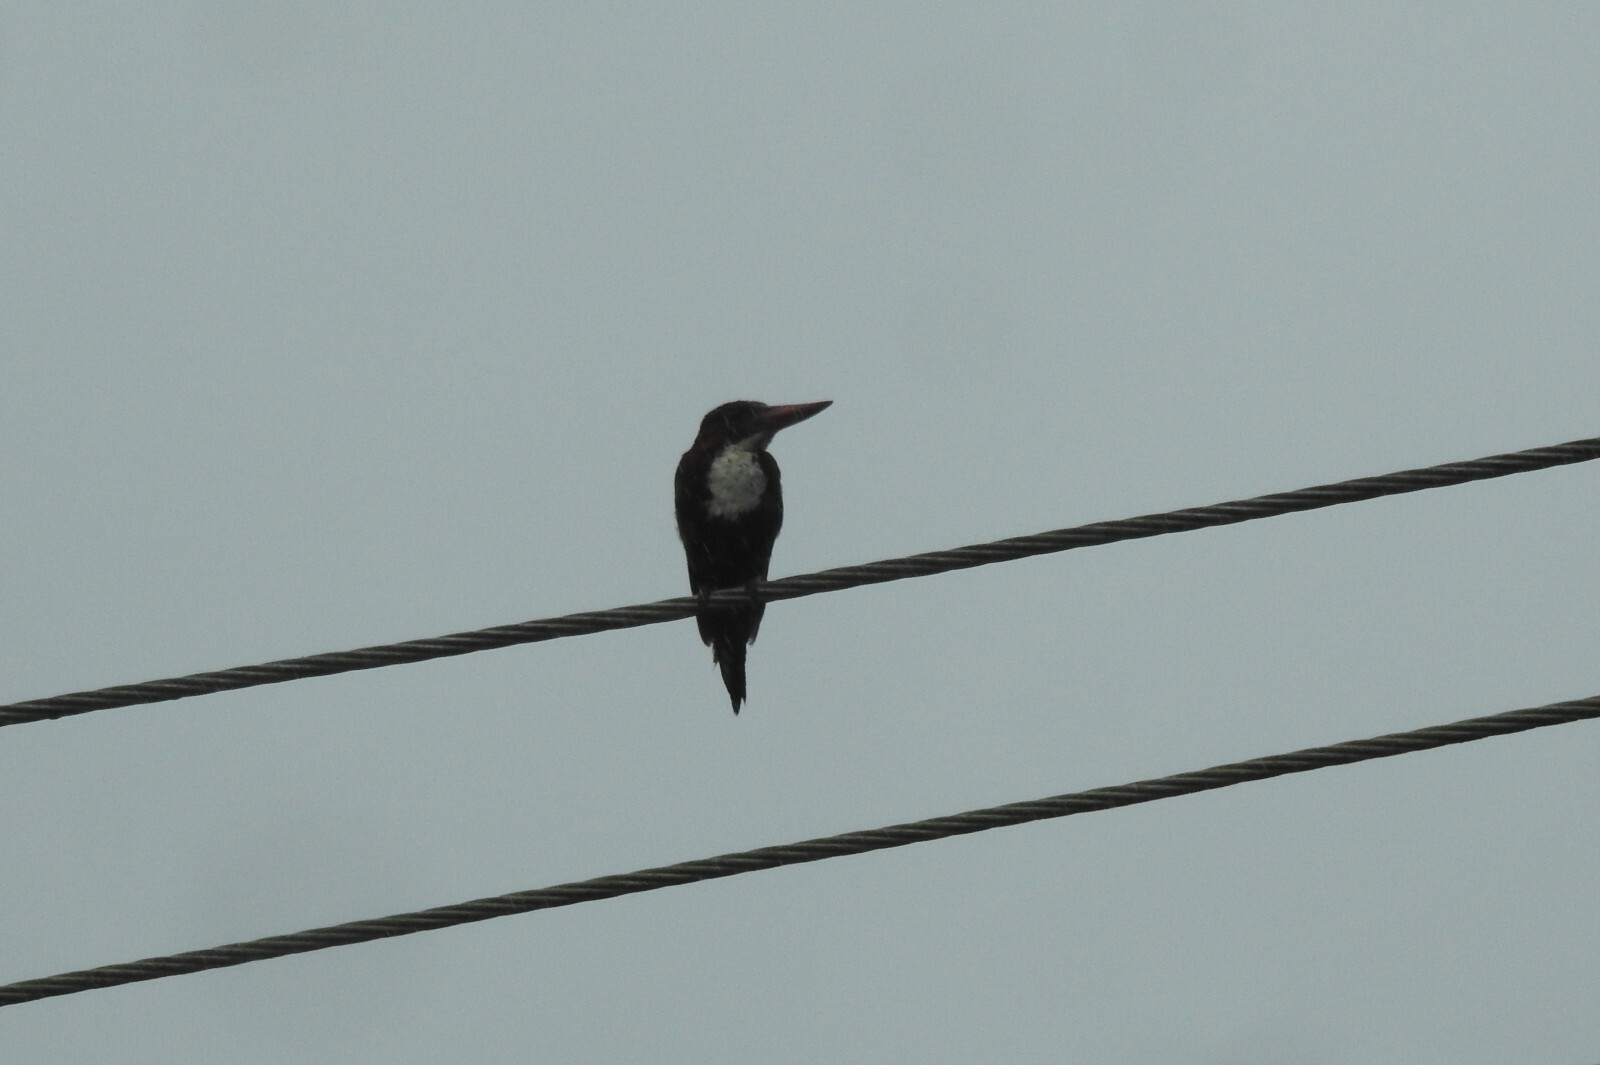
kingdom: Animalia
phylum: Chordata
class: Aves
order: Coraciiformes
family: Alcedinidae
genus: Halcyon
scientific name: Halcyon smyrnensis
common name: White-throated kingfisher
